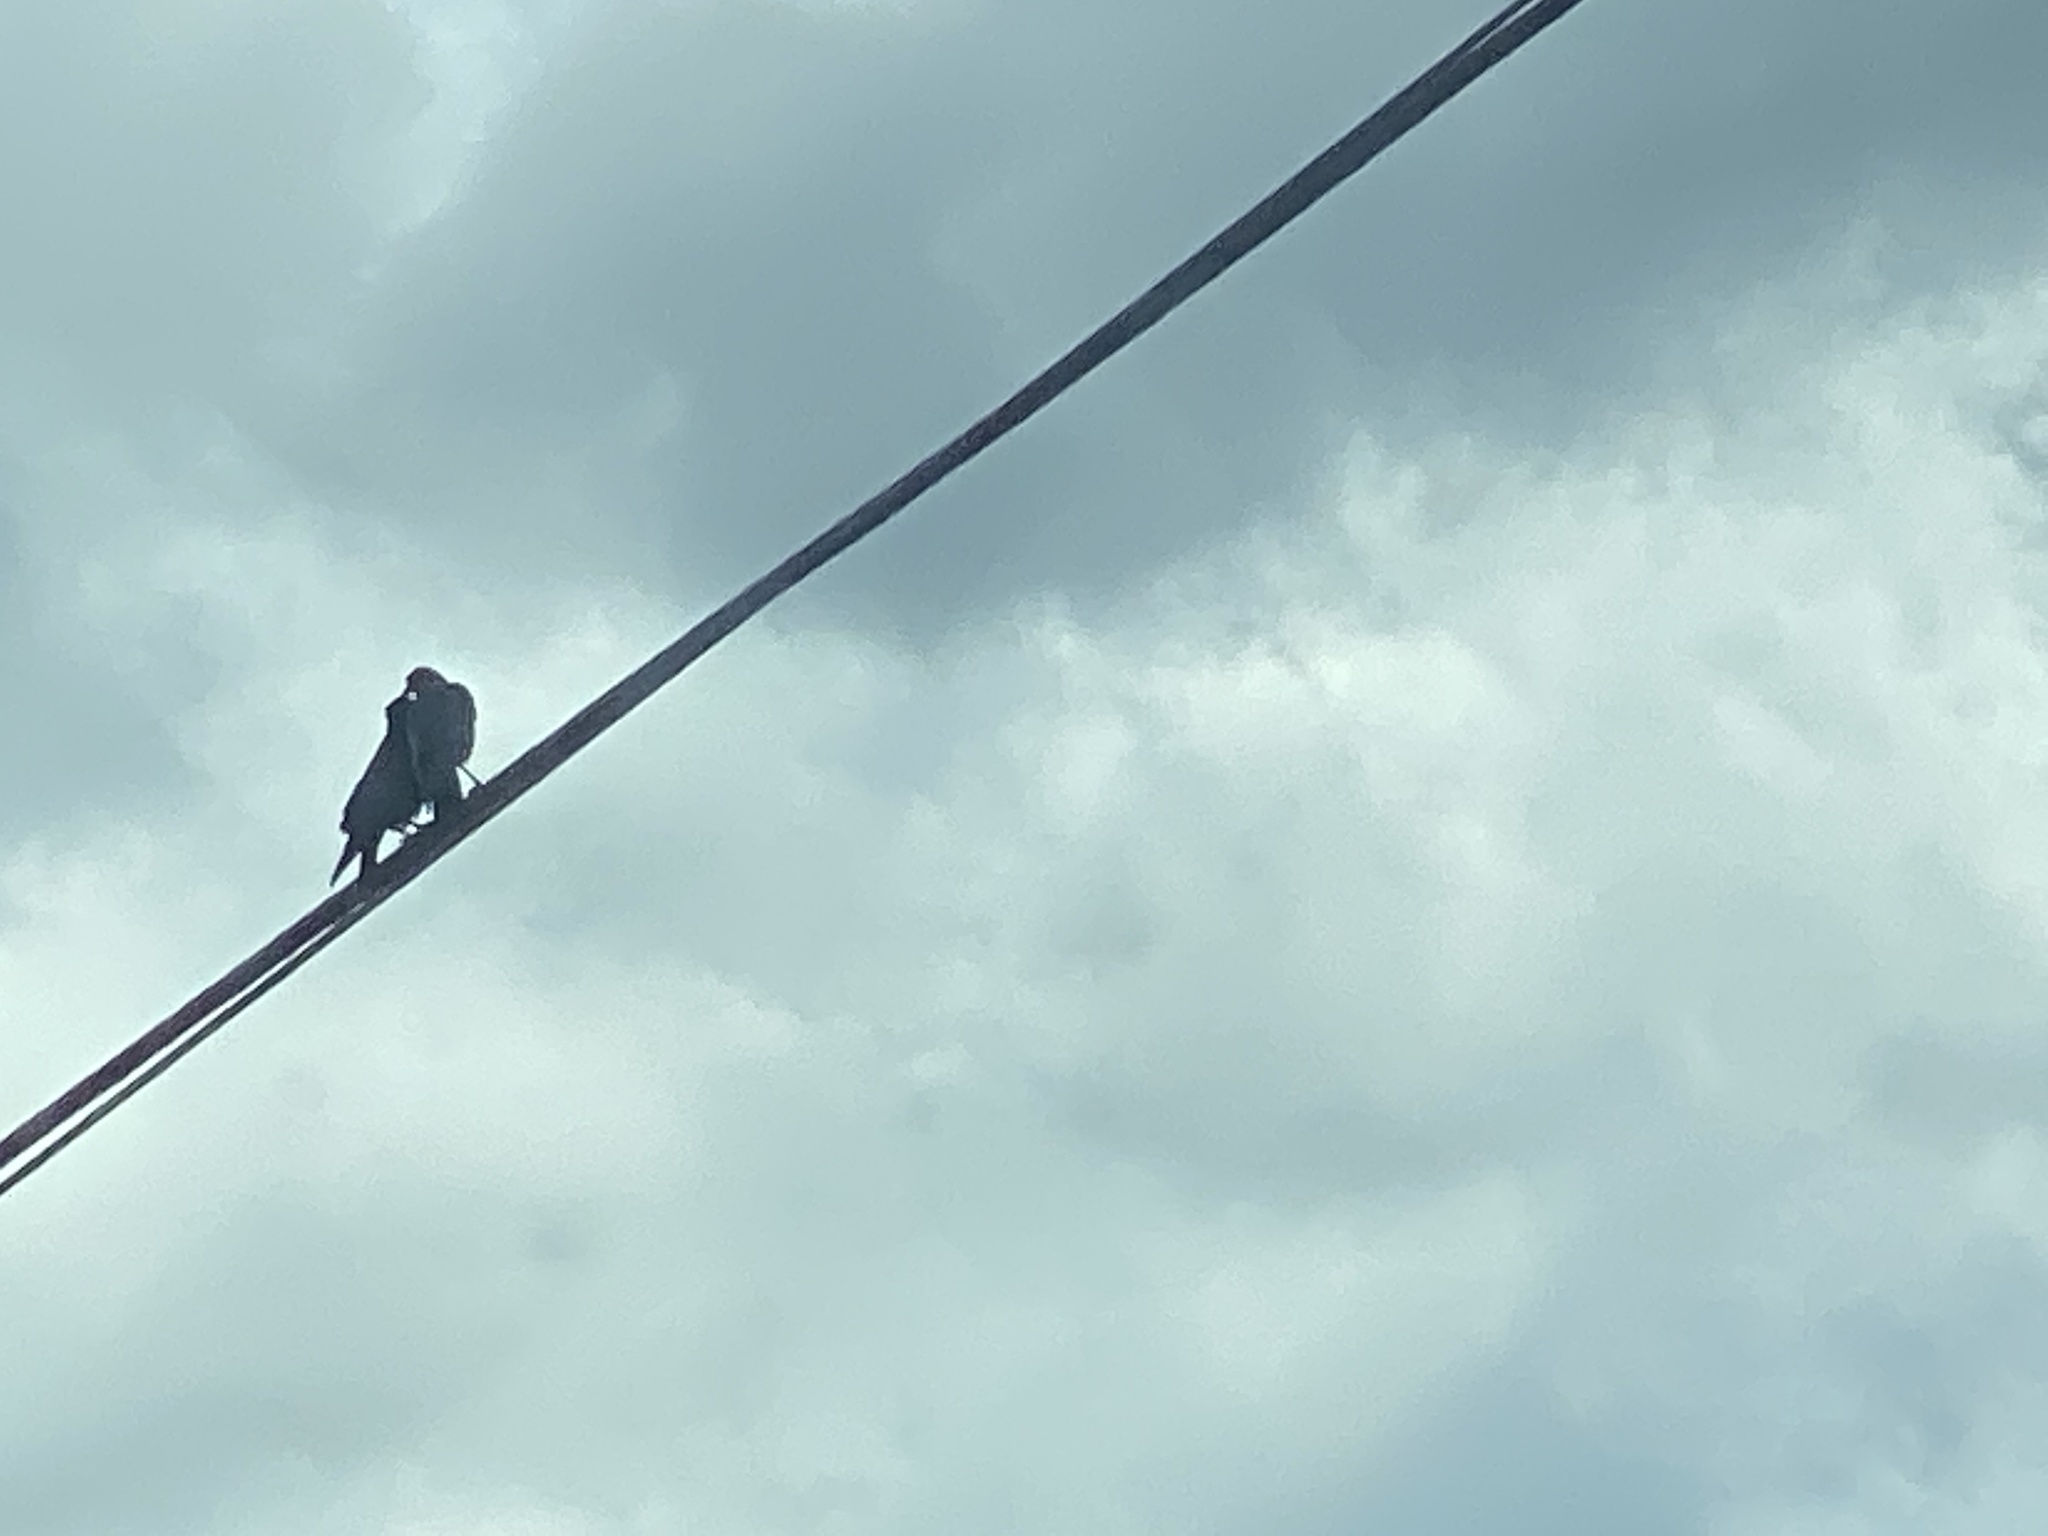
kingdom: Animalia
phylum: Chordata
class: Aves
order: Passeriformes
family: Corvidae
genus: Corvus
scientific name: Corvus brachyrhynchos
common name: American crow
